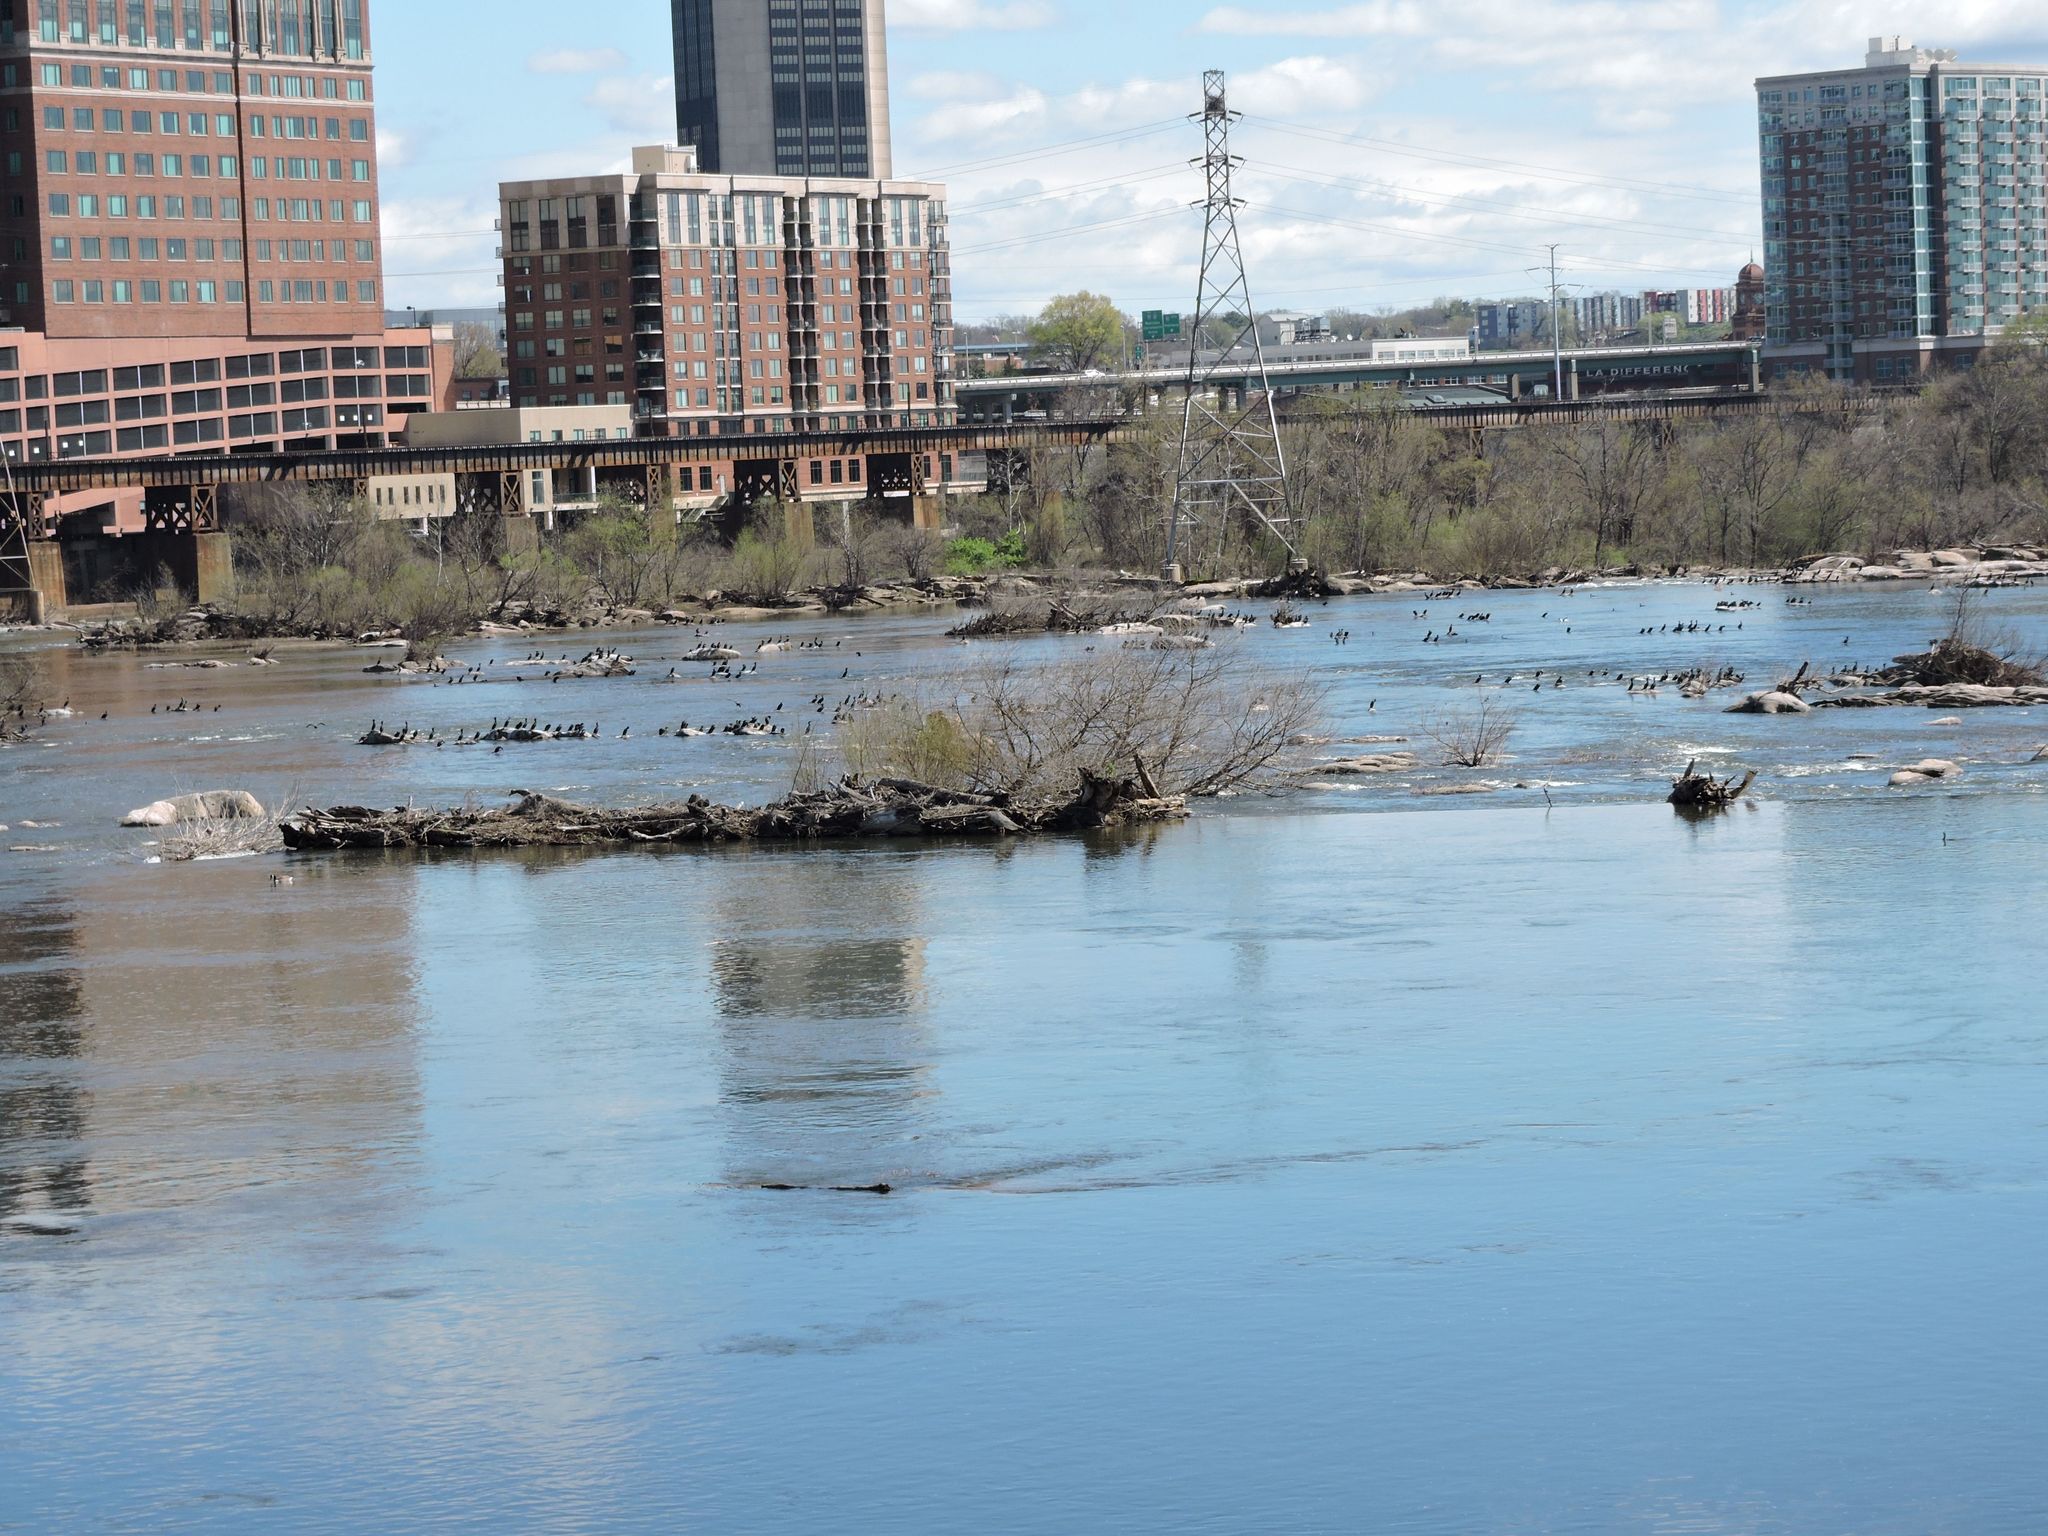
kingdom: Animalia
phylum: Chordata
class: Aves
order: Suliformes
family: Phalacrocoracidae
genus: Phalacrocorax
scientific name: Phalacrocorax auritus
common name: Double-crested cormorant
